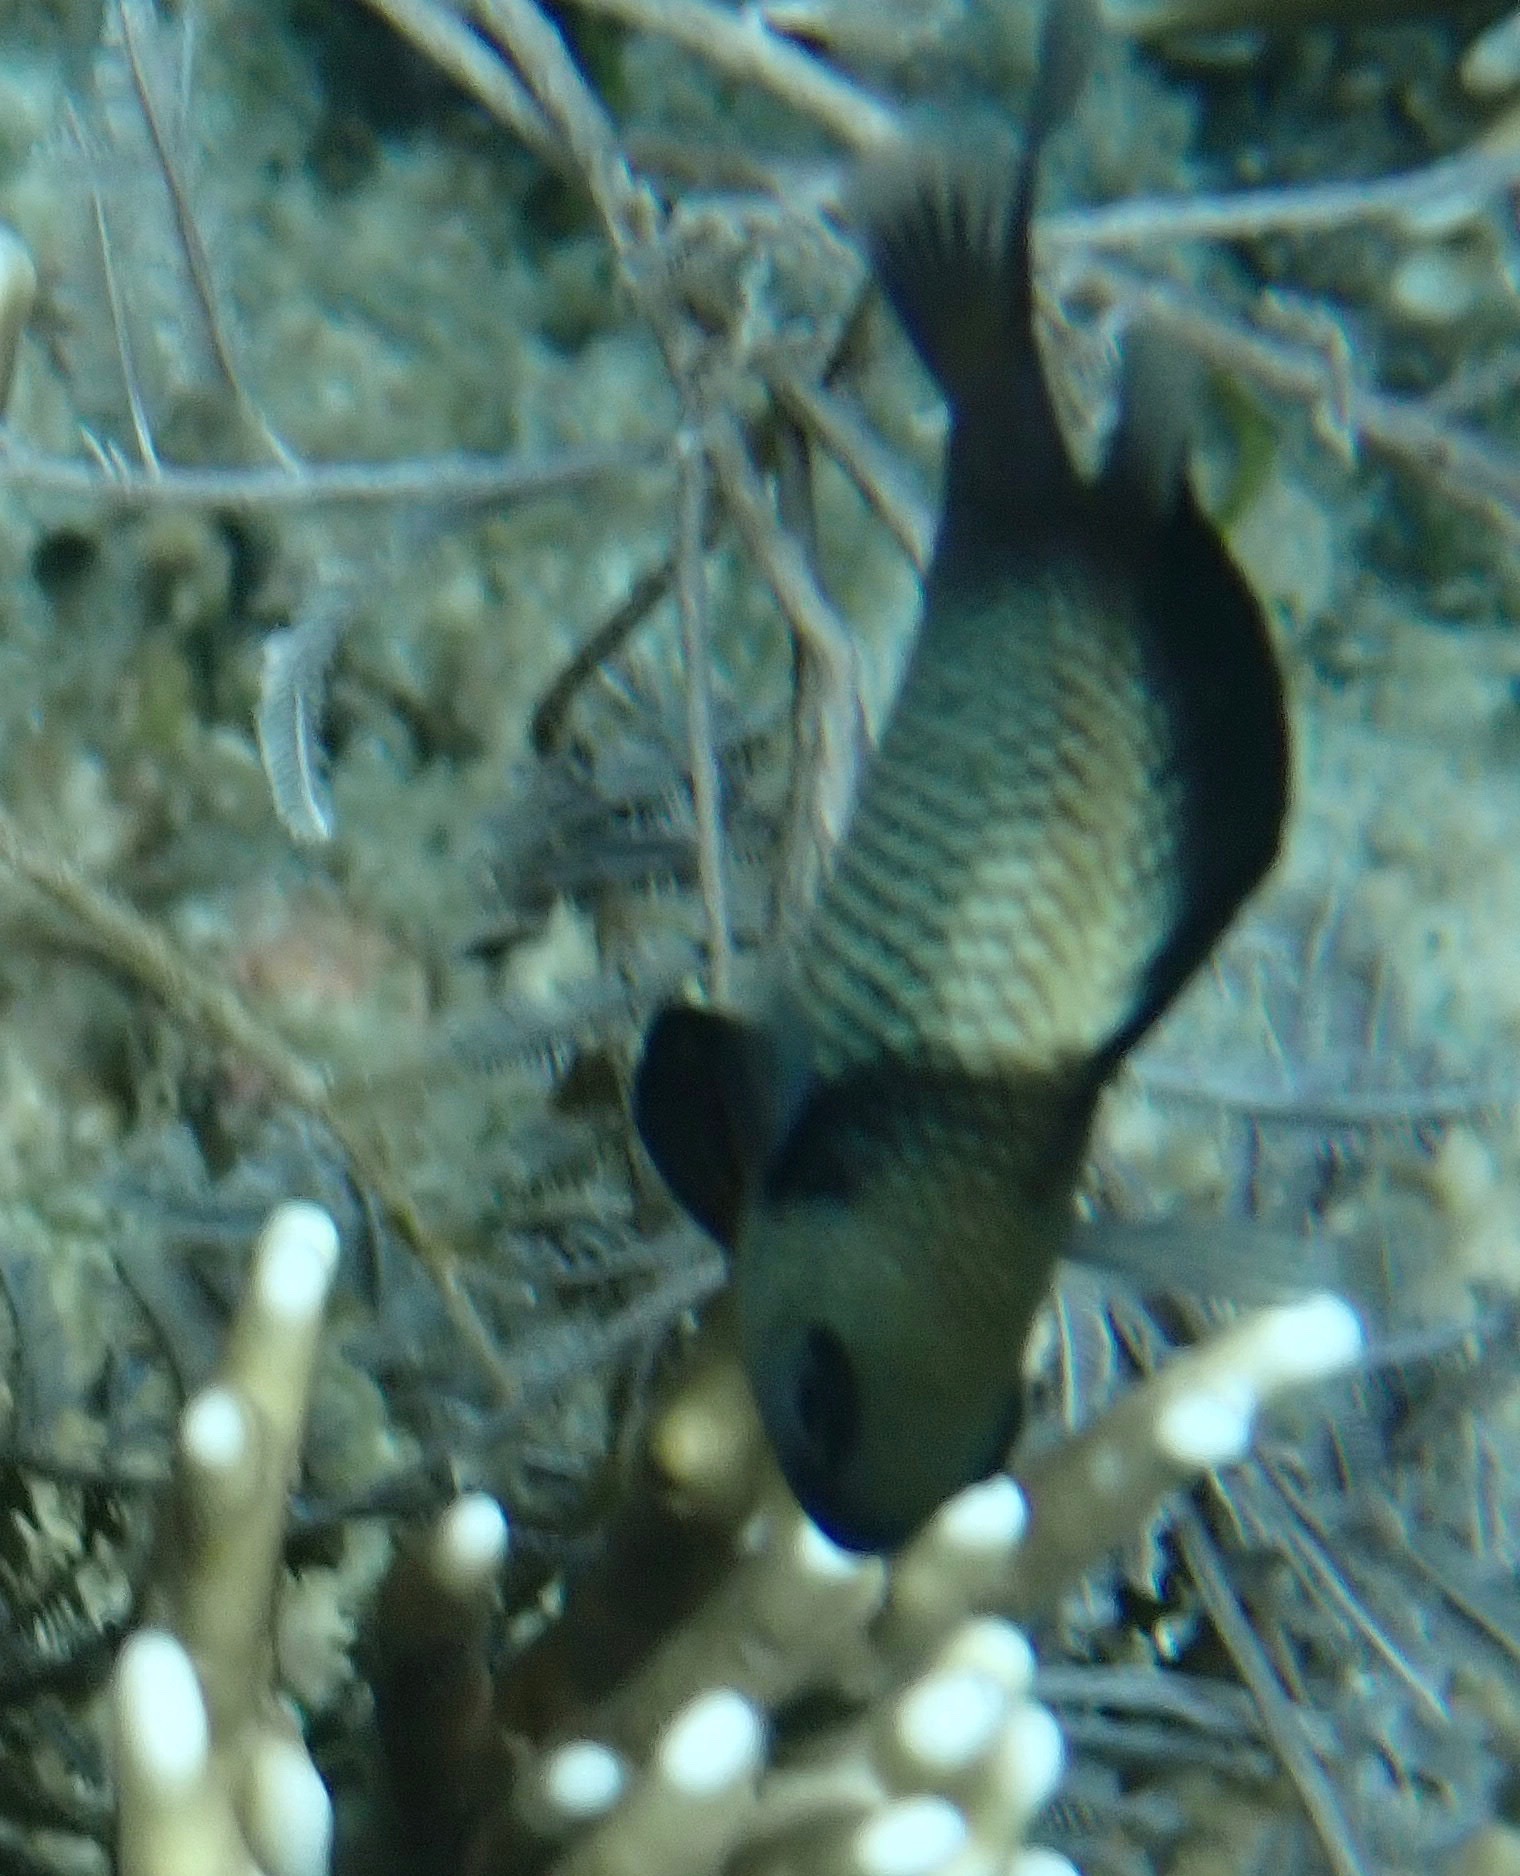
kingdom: Animalia
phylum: Chordata
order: Perciformes
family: Pomacentridae
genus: Dascyllus
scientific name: Dascyllus reticulatus
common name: Reticulated dascyllus
